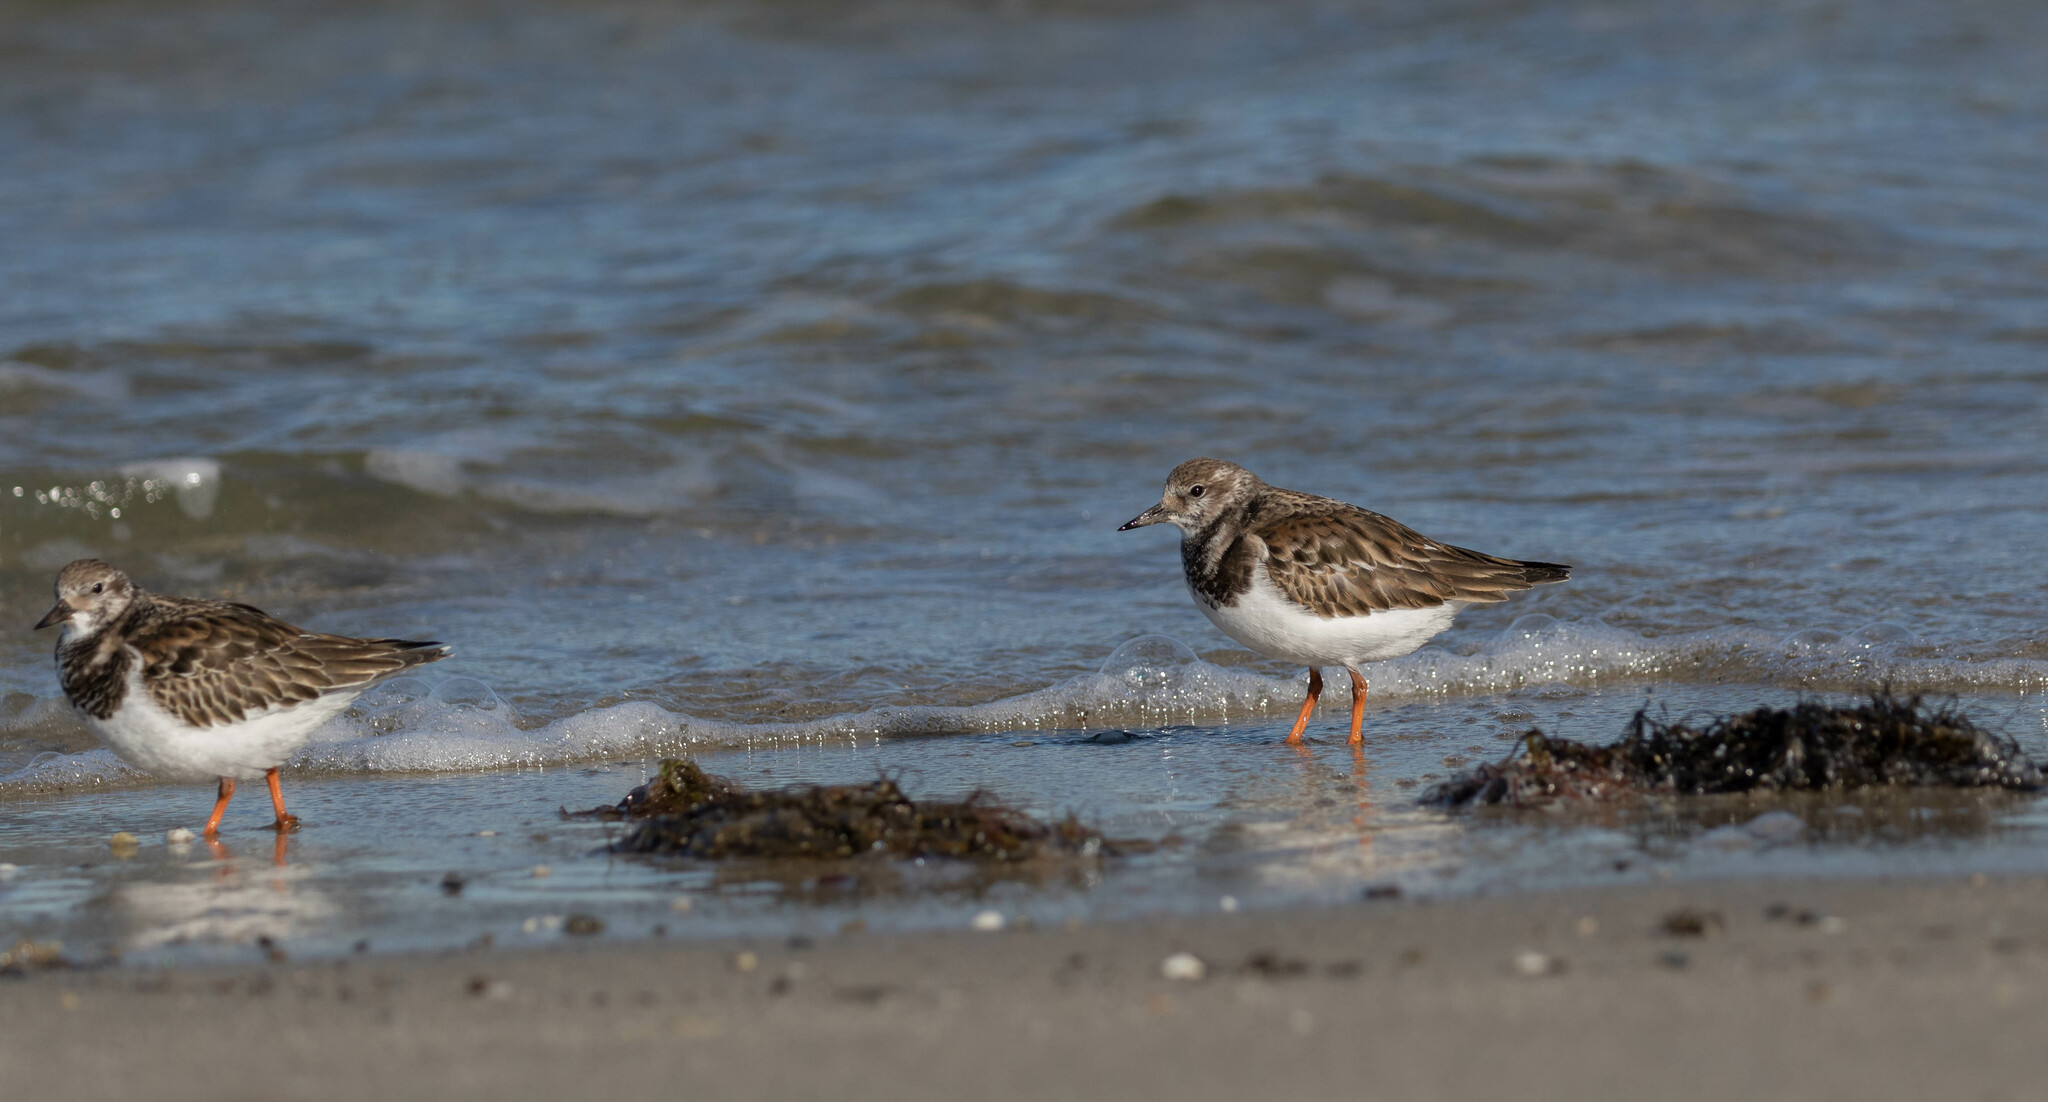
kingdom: Animalia
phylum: Chordata
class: Aves
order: Charadriiformes
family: Scolopacidae
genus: Arenaria
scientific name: Arenaria interpres
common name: Ruddy turnstone
